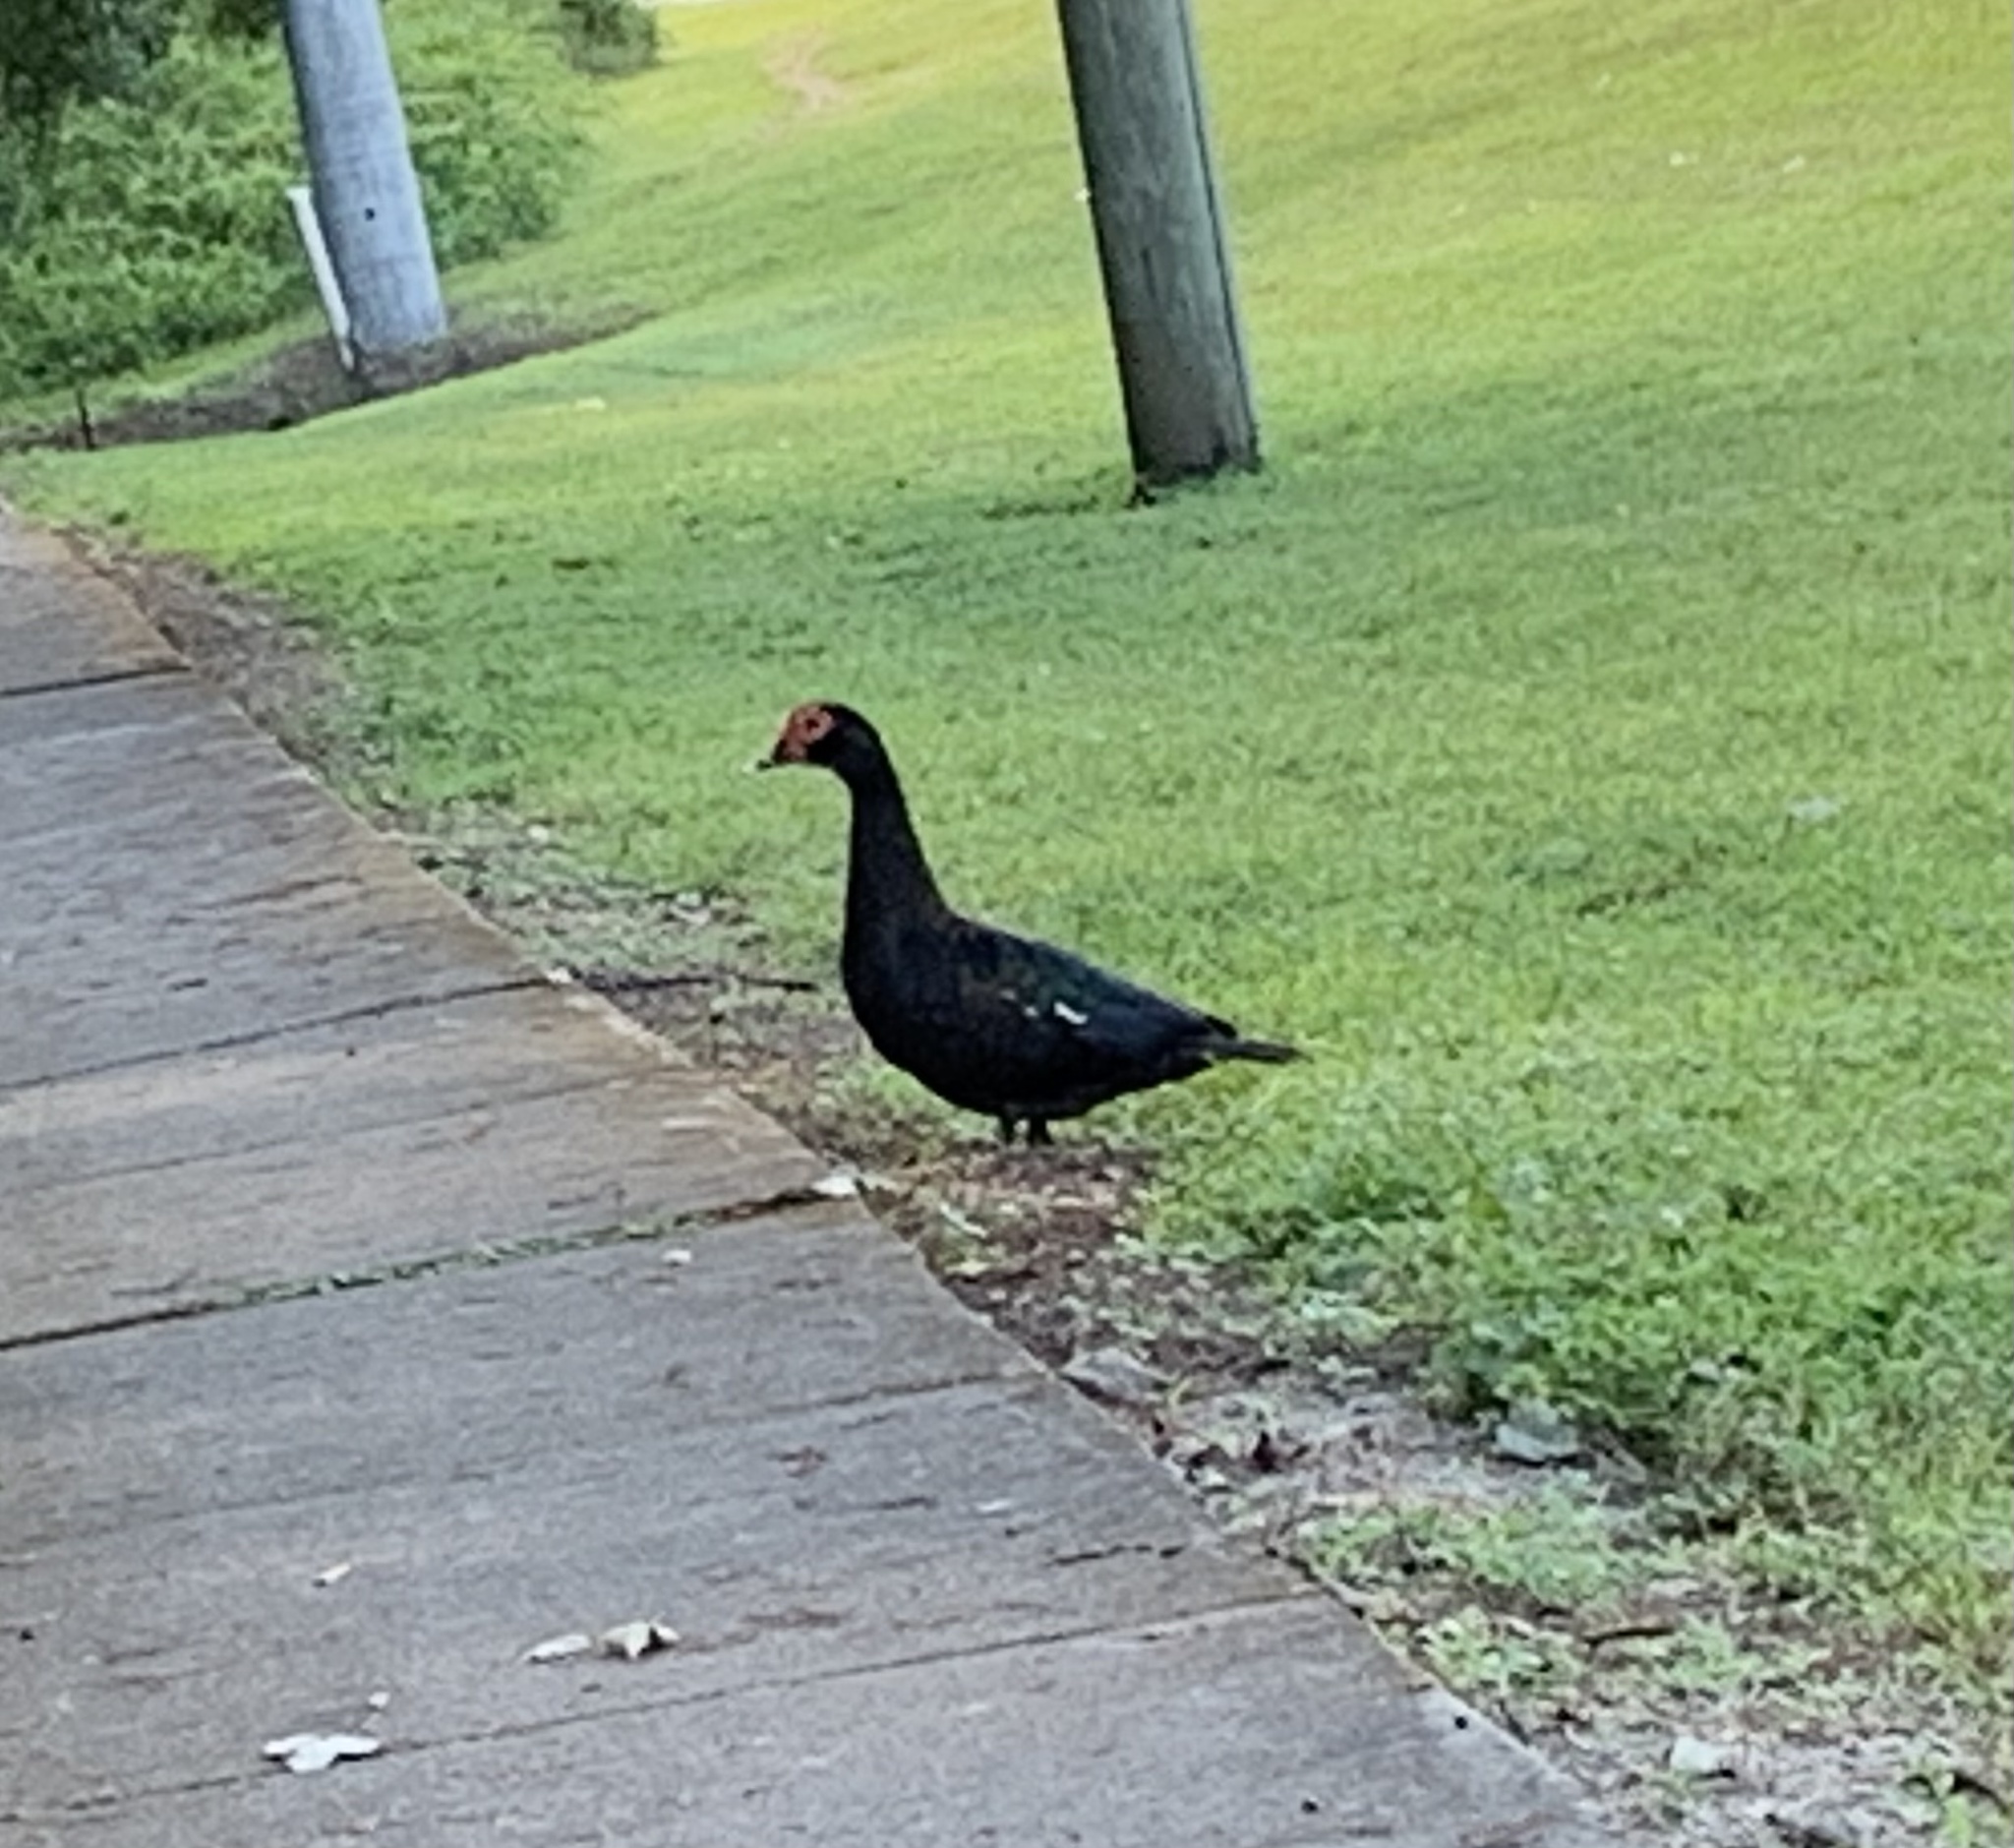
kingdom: Animalia
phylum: Chordata
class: Aves
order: Anseriformes
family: Anatidae
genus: Cairina
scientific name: Cairina moschata
